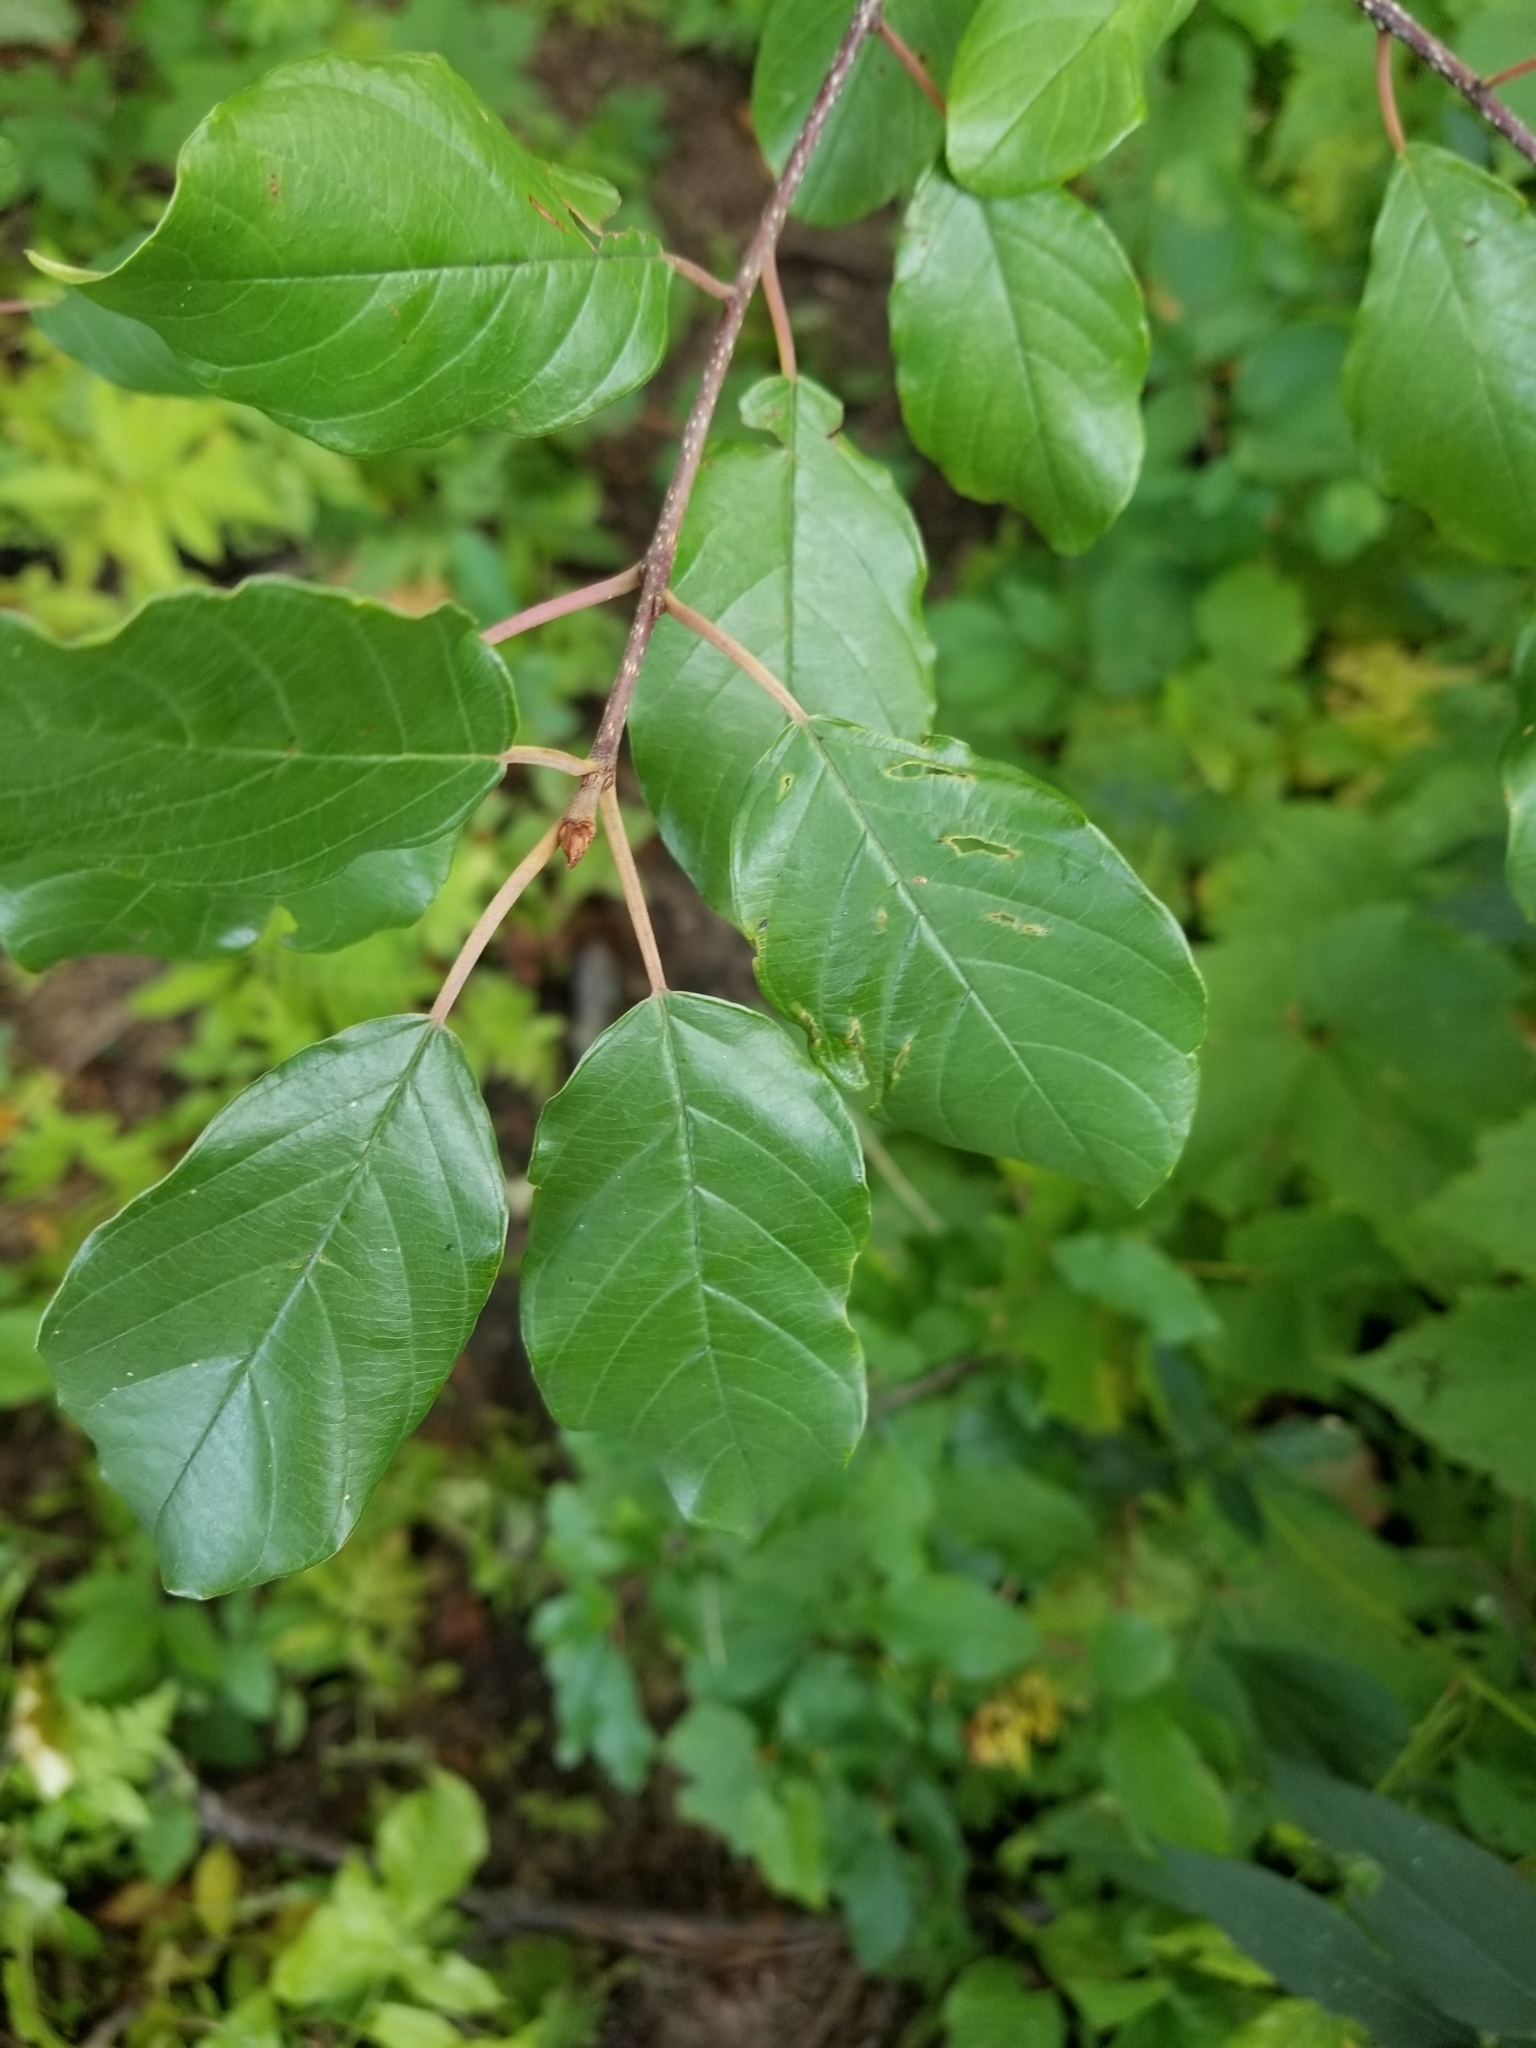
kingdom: Plantae
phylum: Tracheophyta
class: Magnoliopsida
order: Rosales
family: Rhamnaceae
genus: Frangula
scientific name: Frangula alnus
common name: Alder buckthorn
